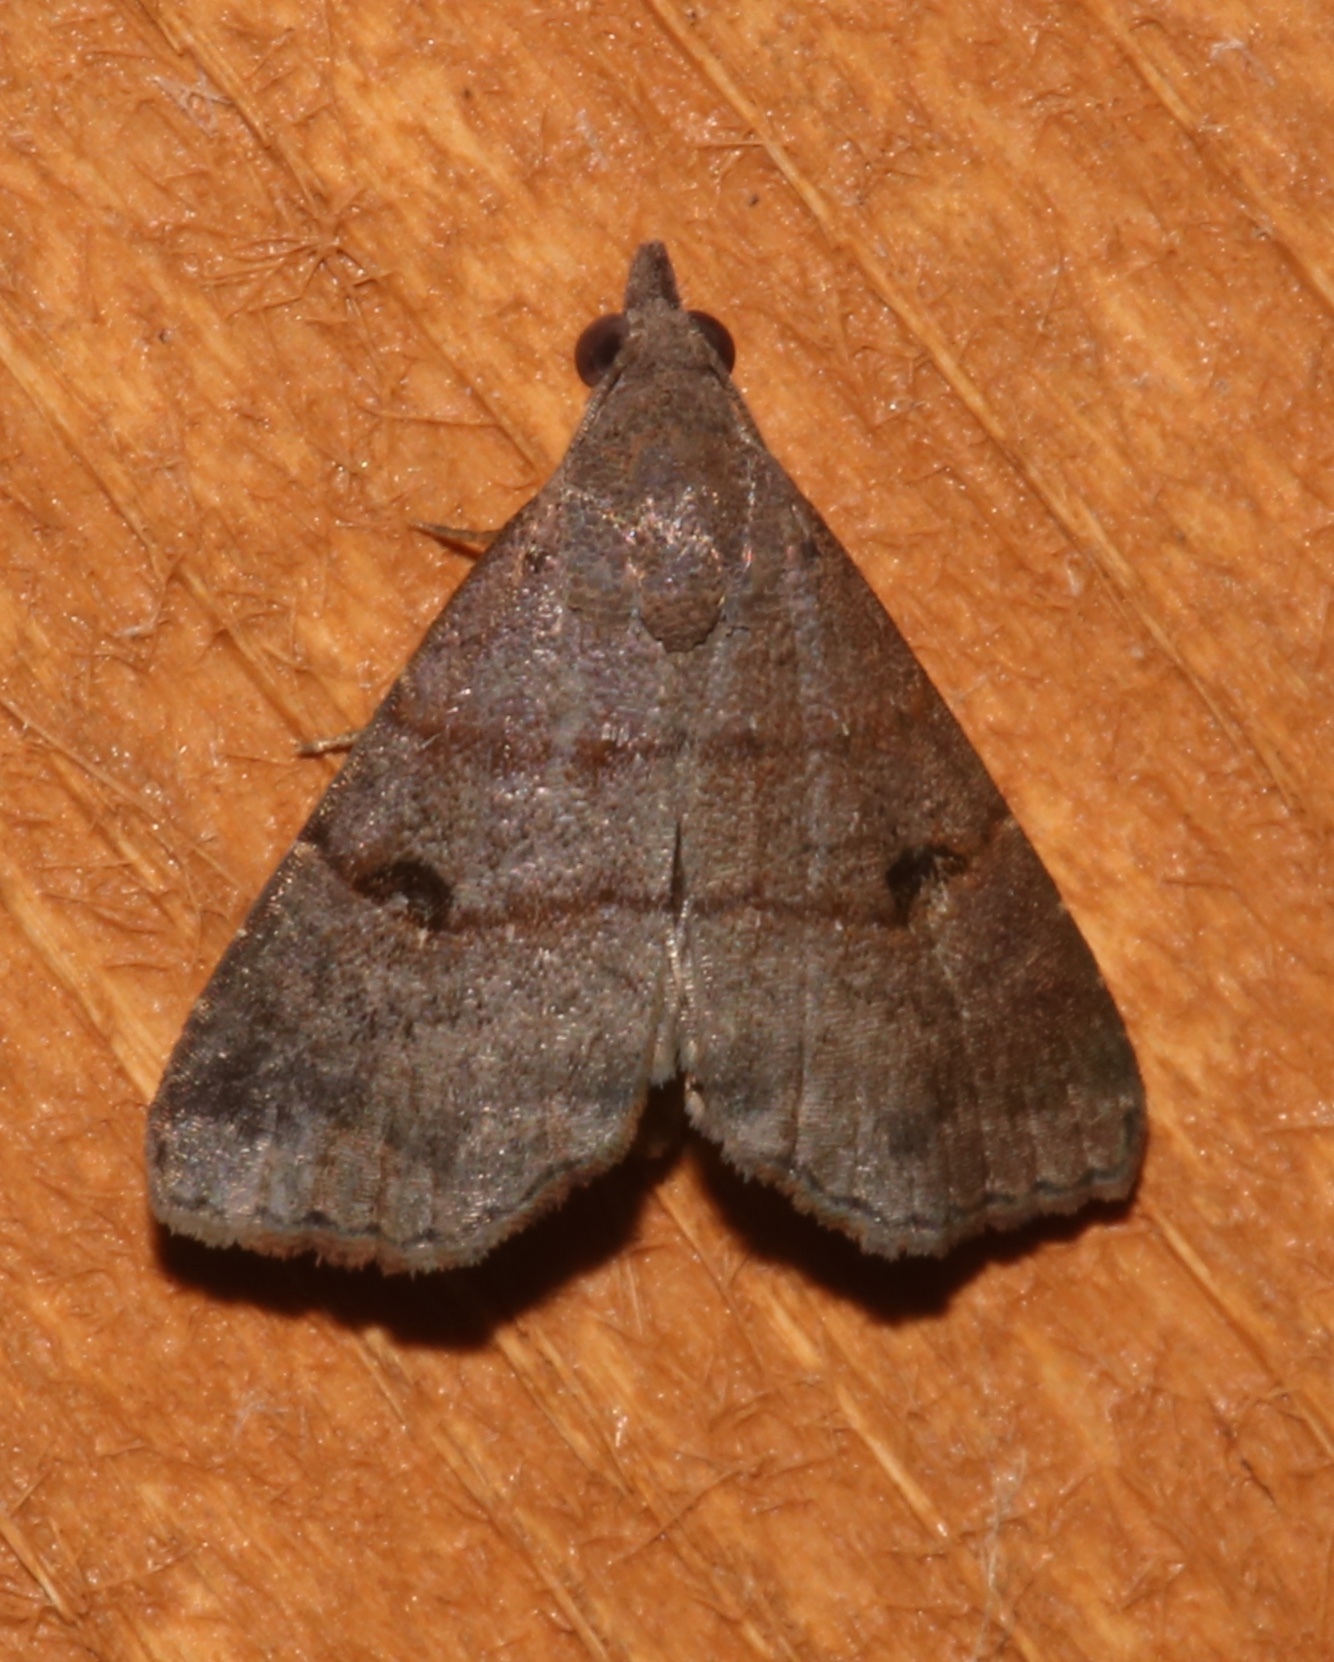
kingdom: Animalia
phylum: Arthropoda
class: Insecta
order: Lepidoptera
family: Noctuidae
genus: Hormoschista
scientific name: Hormoschista latipalpis
